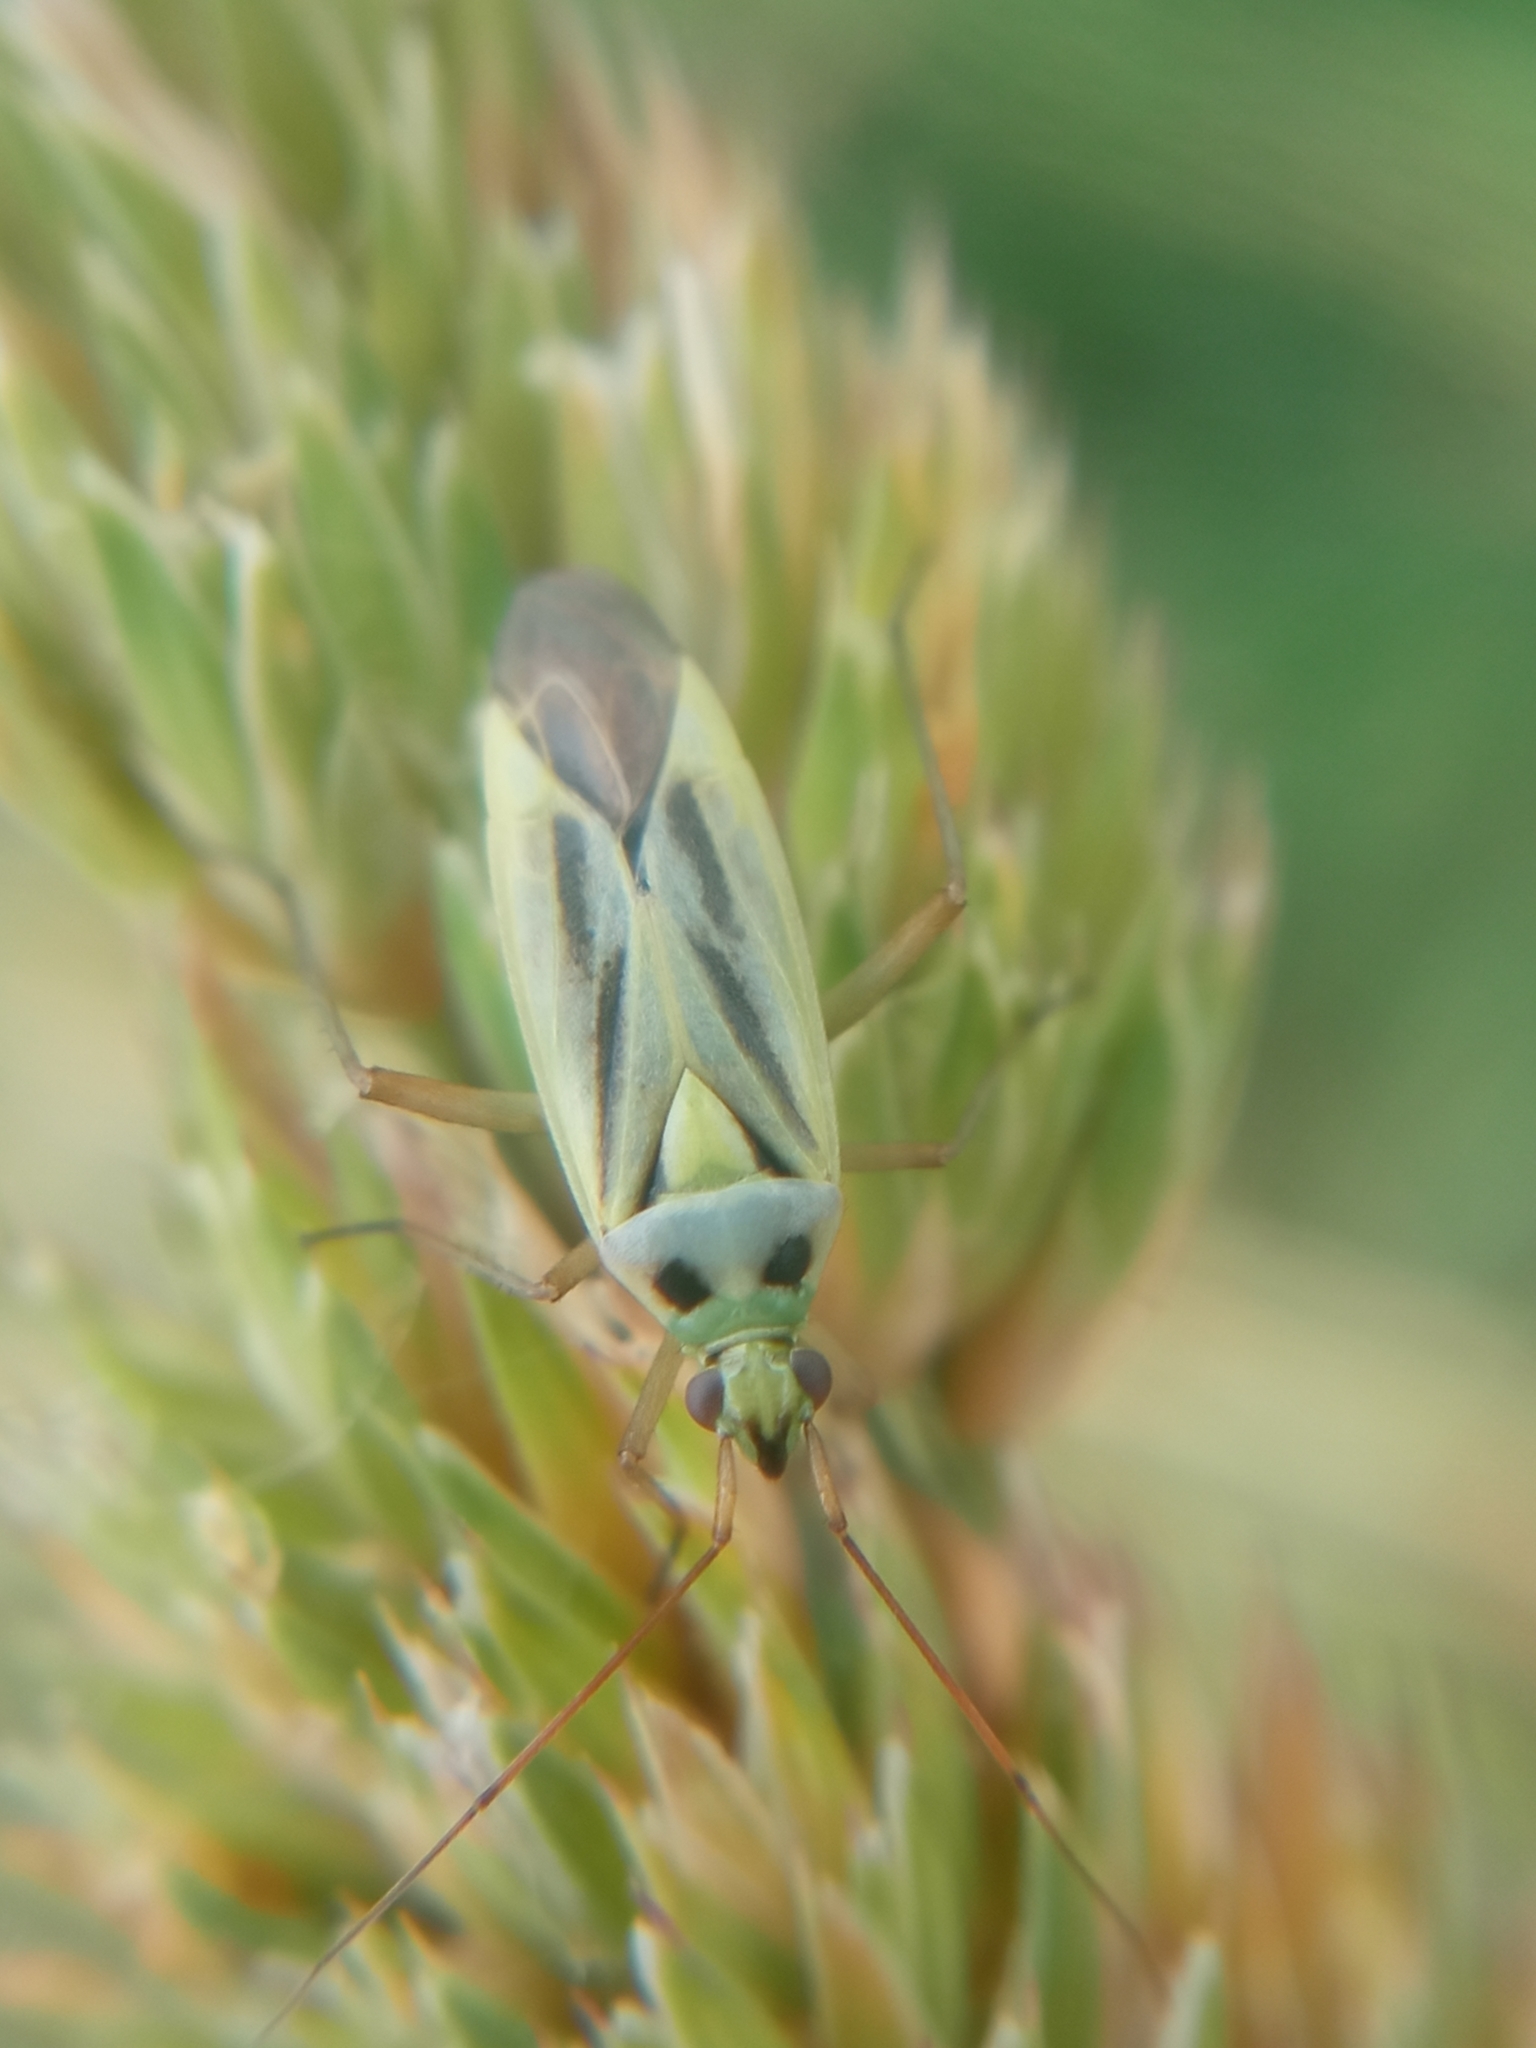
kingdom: Animalia
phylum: Arthropoda
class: Insecta
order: Hemiptera
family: Miridae
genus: Stenotus
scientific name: Stenotus binotatus
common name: Plant bug
